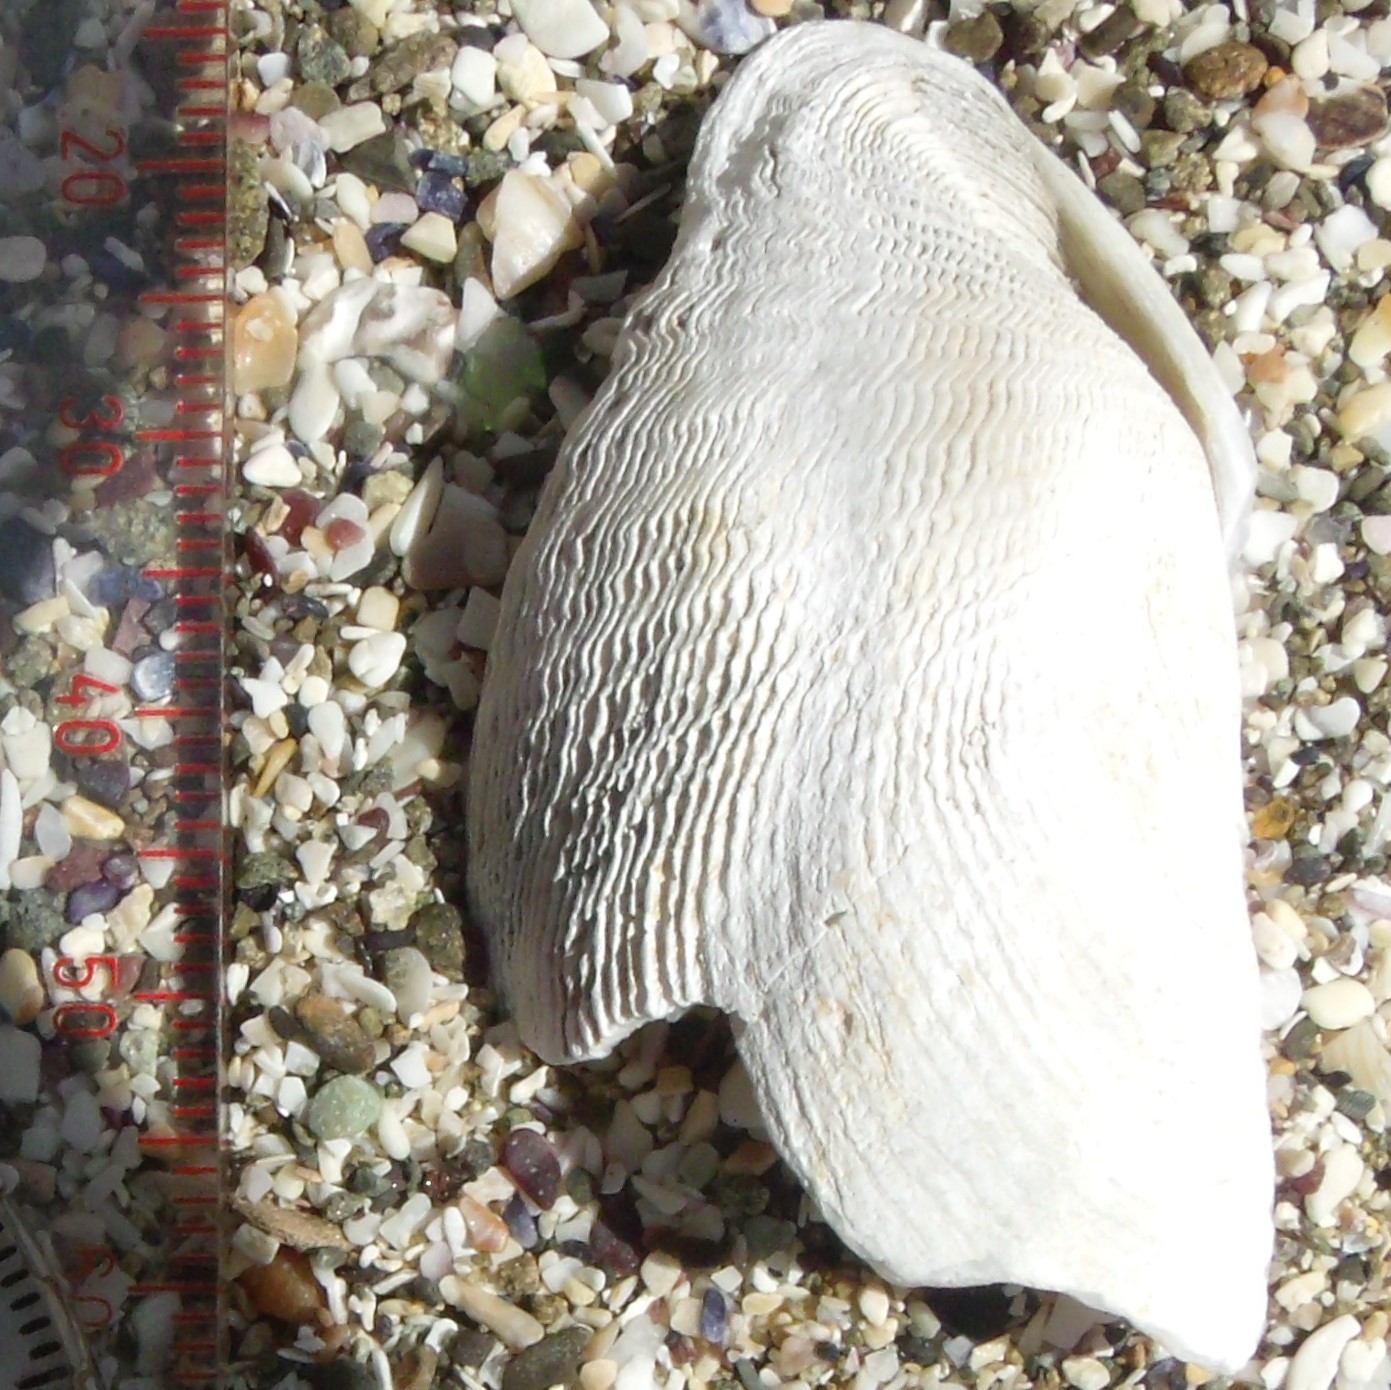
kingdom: Animalia
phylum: Mollusca
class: Bivalvia
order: Myida
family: Pholadidae
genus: Barnea
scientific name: Barnea similis
